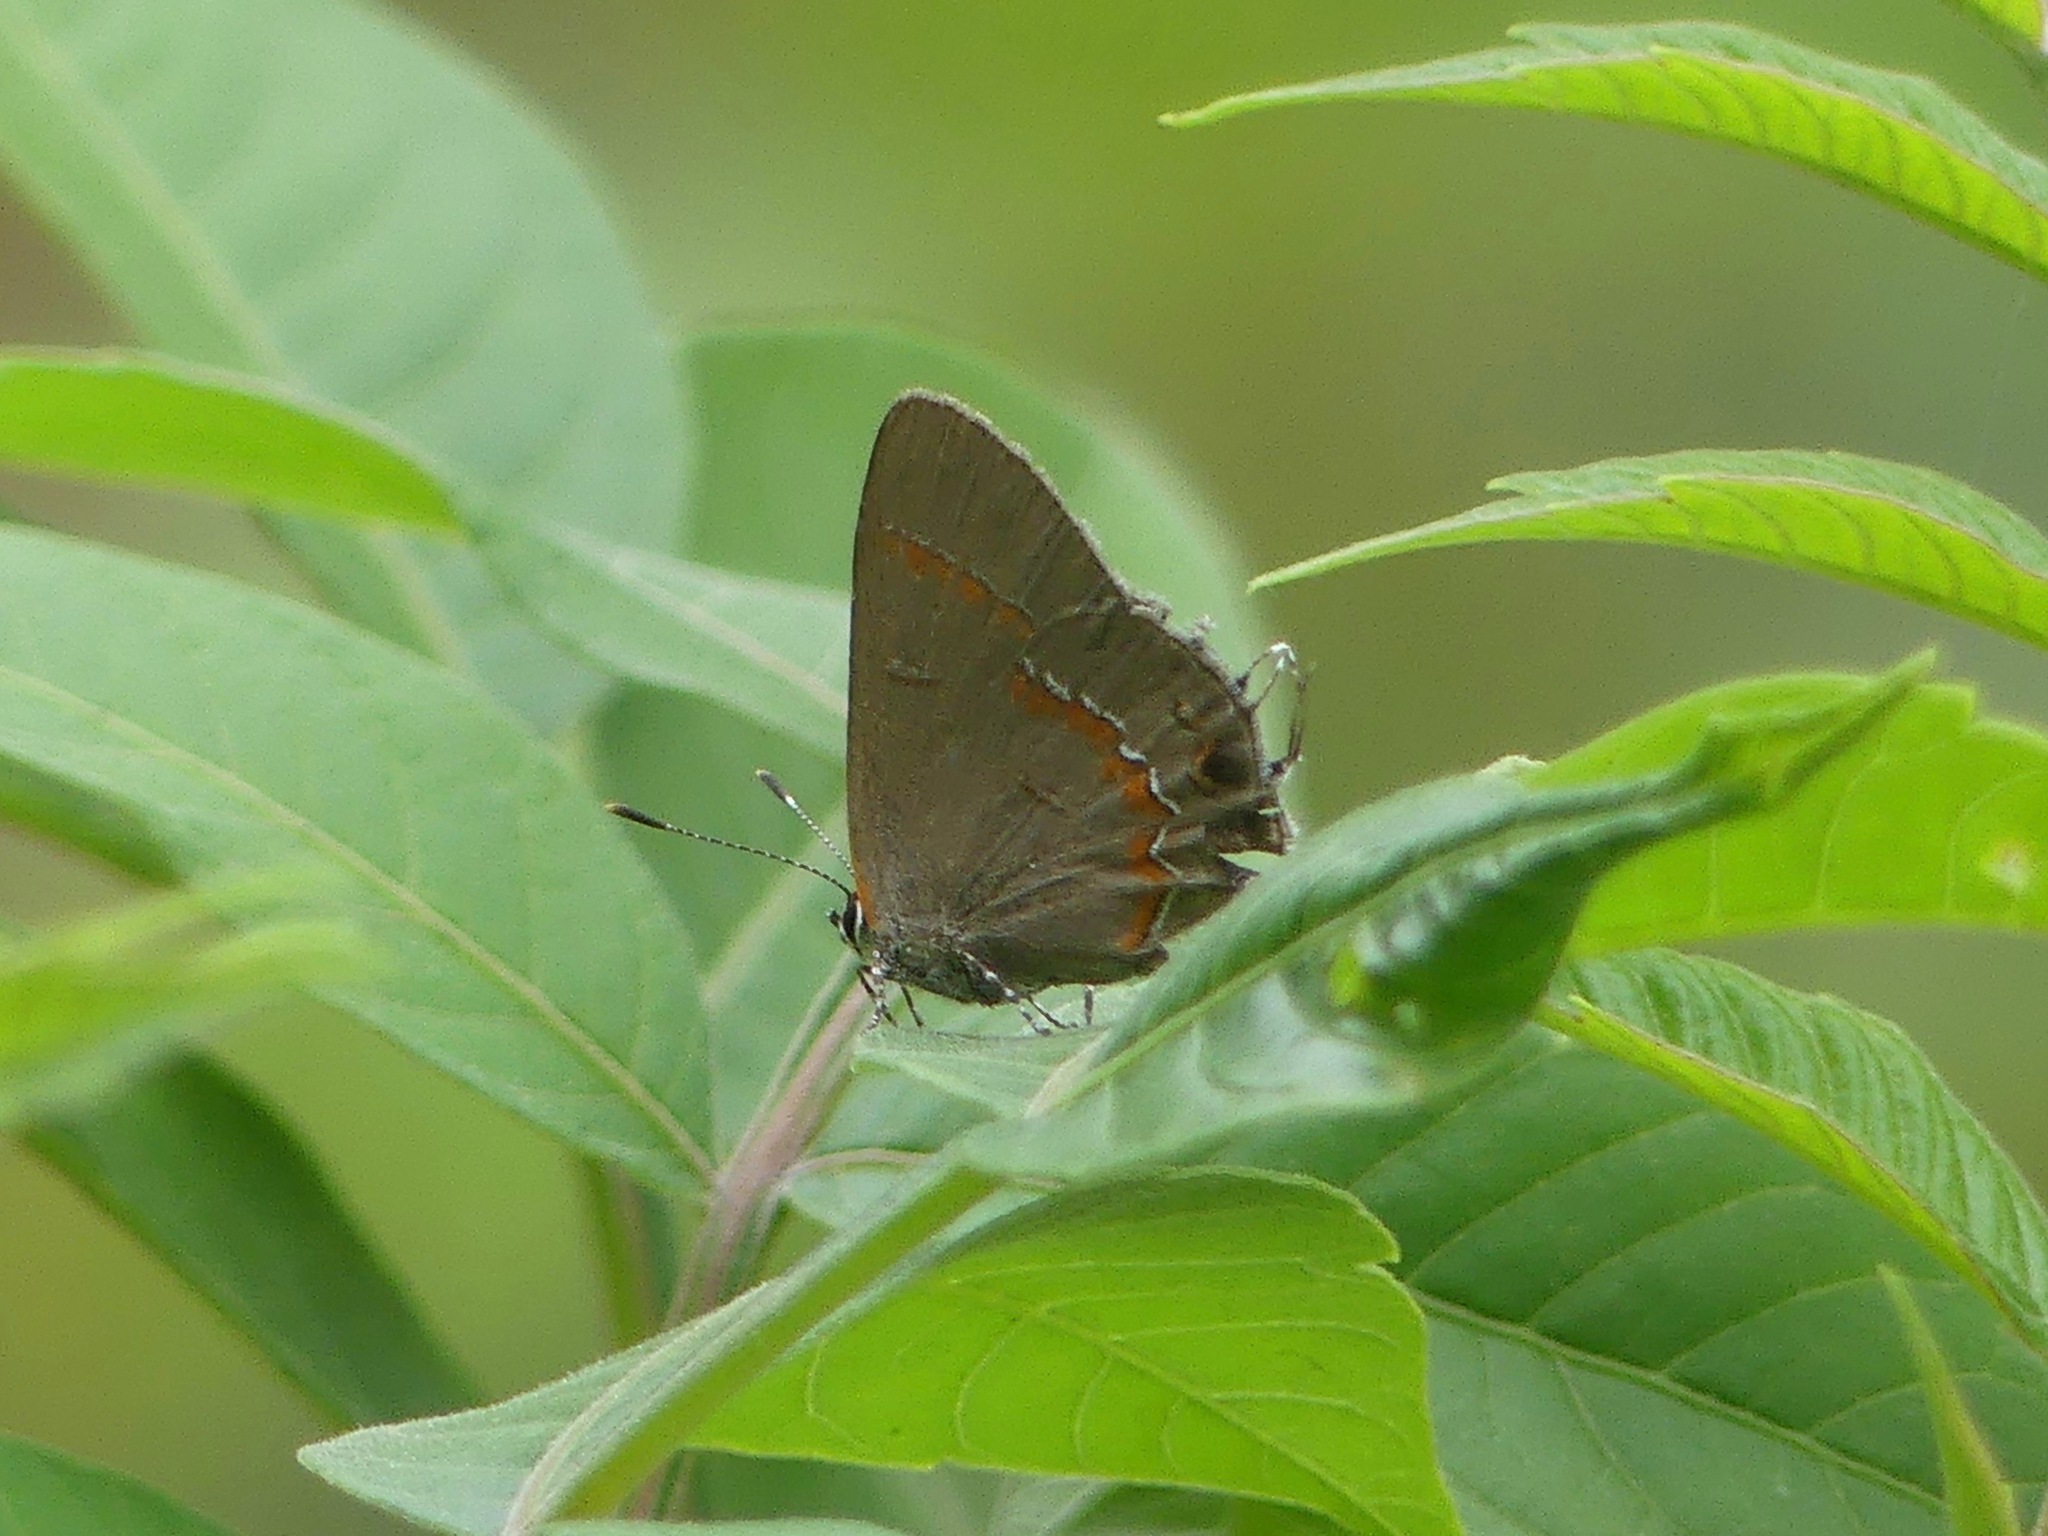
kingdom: Animalia
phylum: Arthropoda
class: Insecta
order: Lepidoptera
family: Lycaenidae
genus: Calycopis
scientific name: Calycopis cecrops
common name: Red-banded hairstreak
